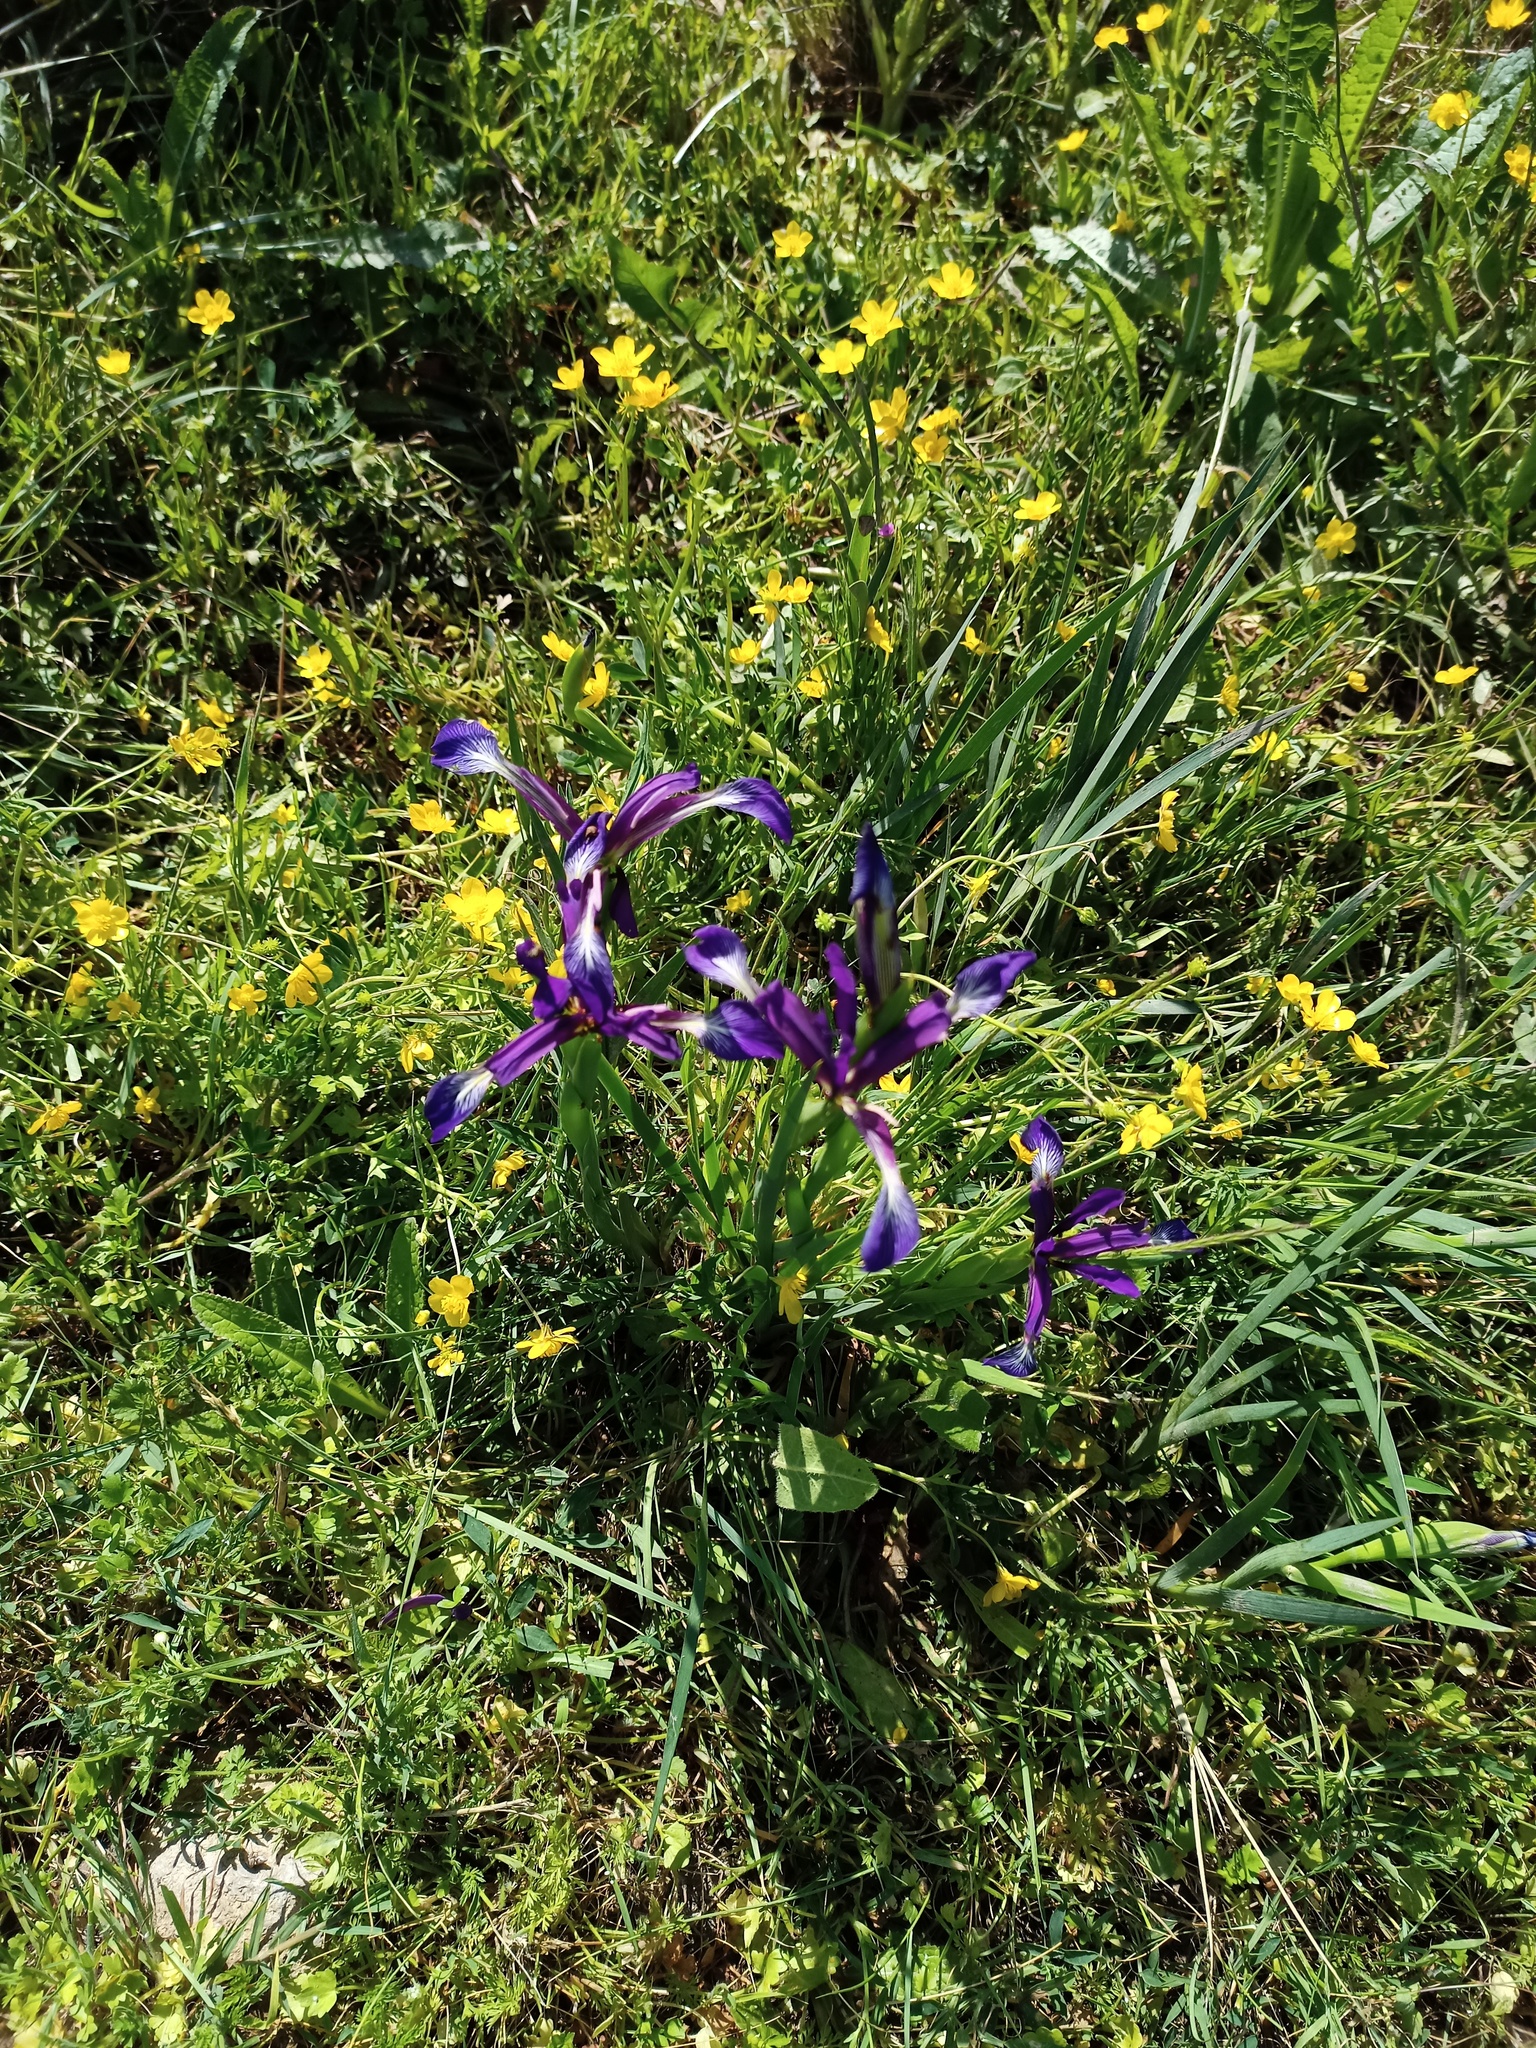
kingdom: Plantae
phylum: Tracheophyta
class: Liliopsida
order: Asparagales
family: Iridaceae
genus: Iris
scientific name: Iris reichenbachiana
